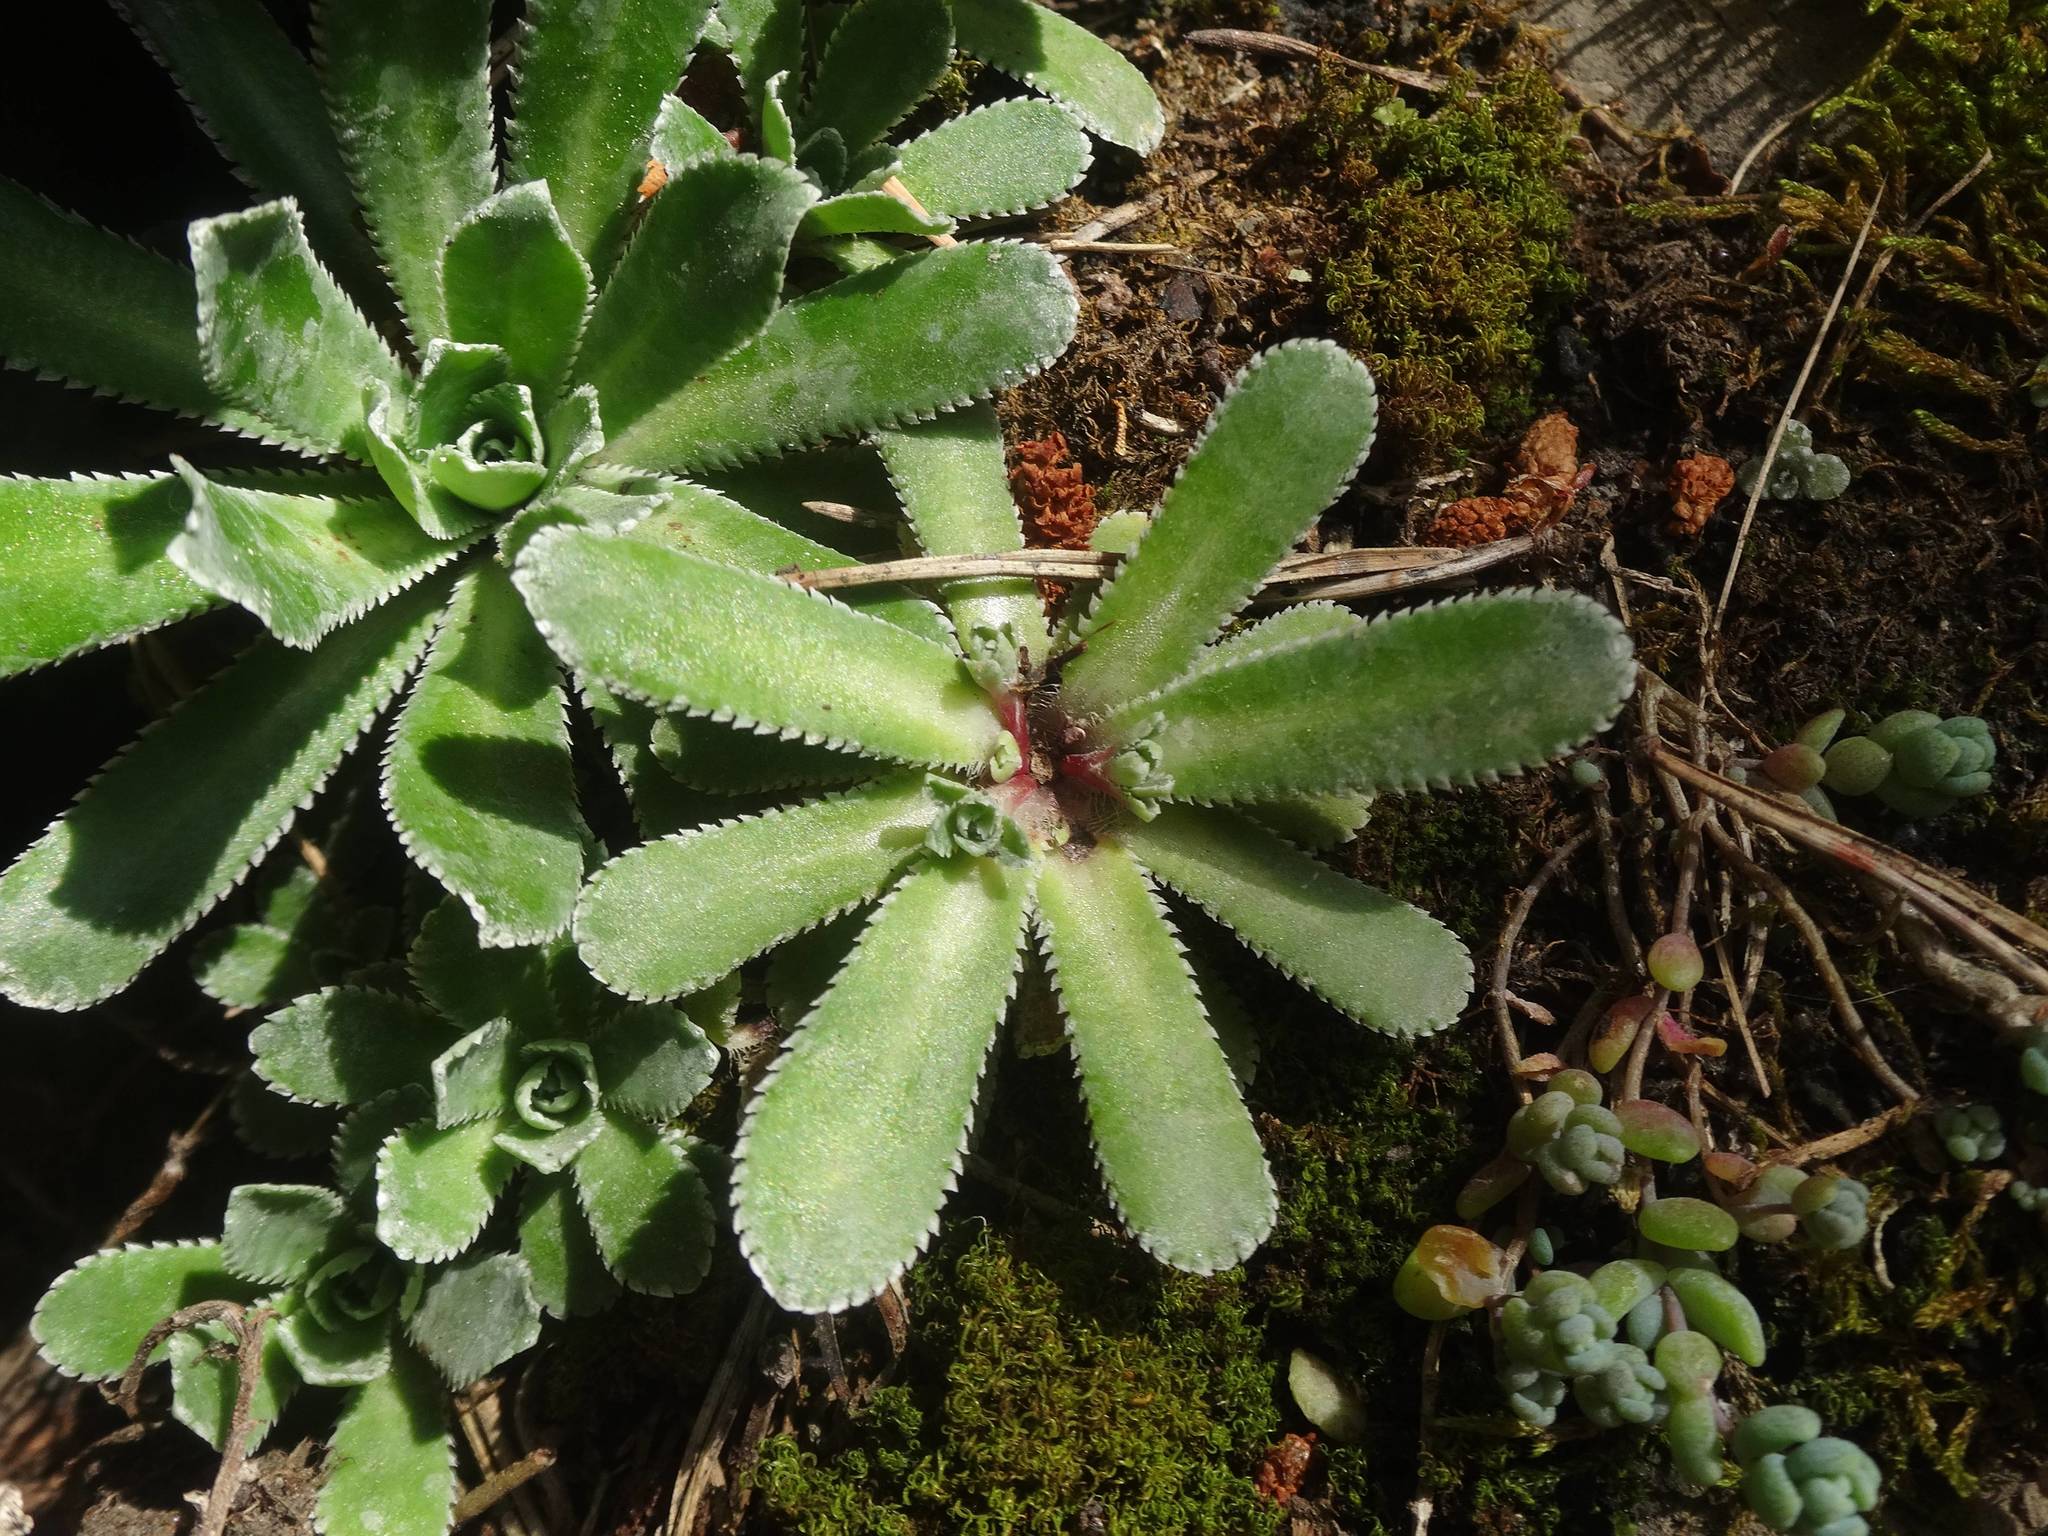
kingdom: Plantae
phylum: Tracheophyta
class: Magnoliopsida
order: Saxifragales
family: Saxifragaceae
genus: Saxifraga
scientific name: Saxifraga paniculata
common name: Livelong saxifrage
